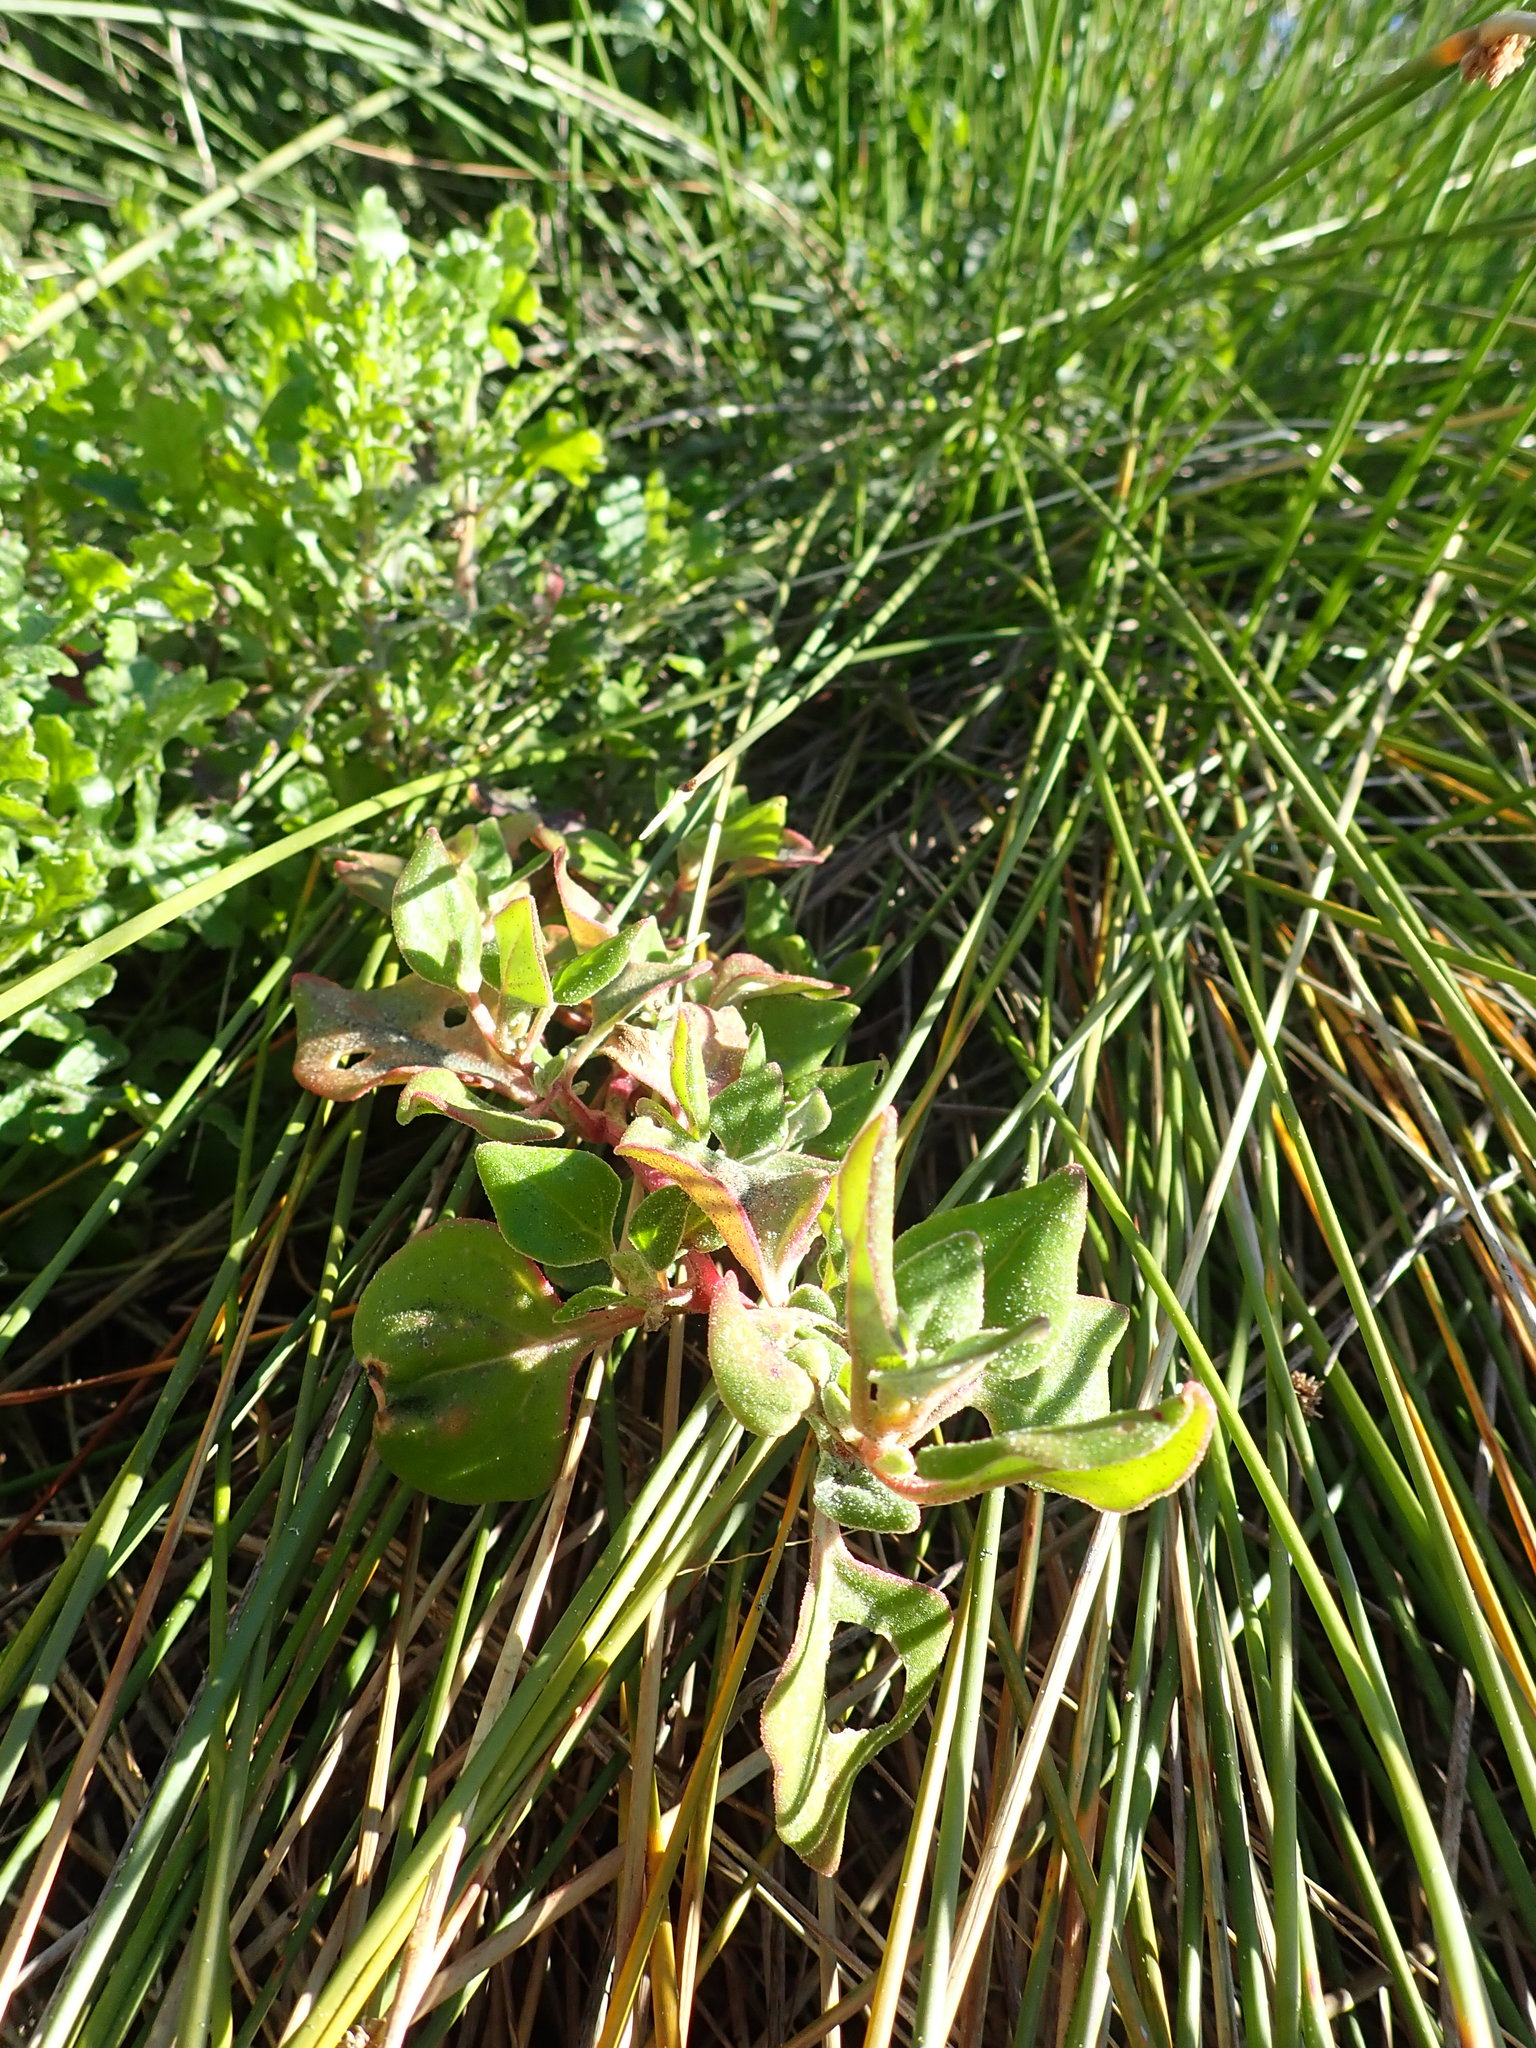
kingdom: Plantae
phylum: Tracheophyta
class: Magnoliopsida
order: Caryophyllales
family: Aizoaceae
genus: Tetragonia
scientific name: Tetragonia implexicoma
